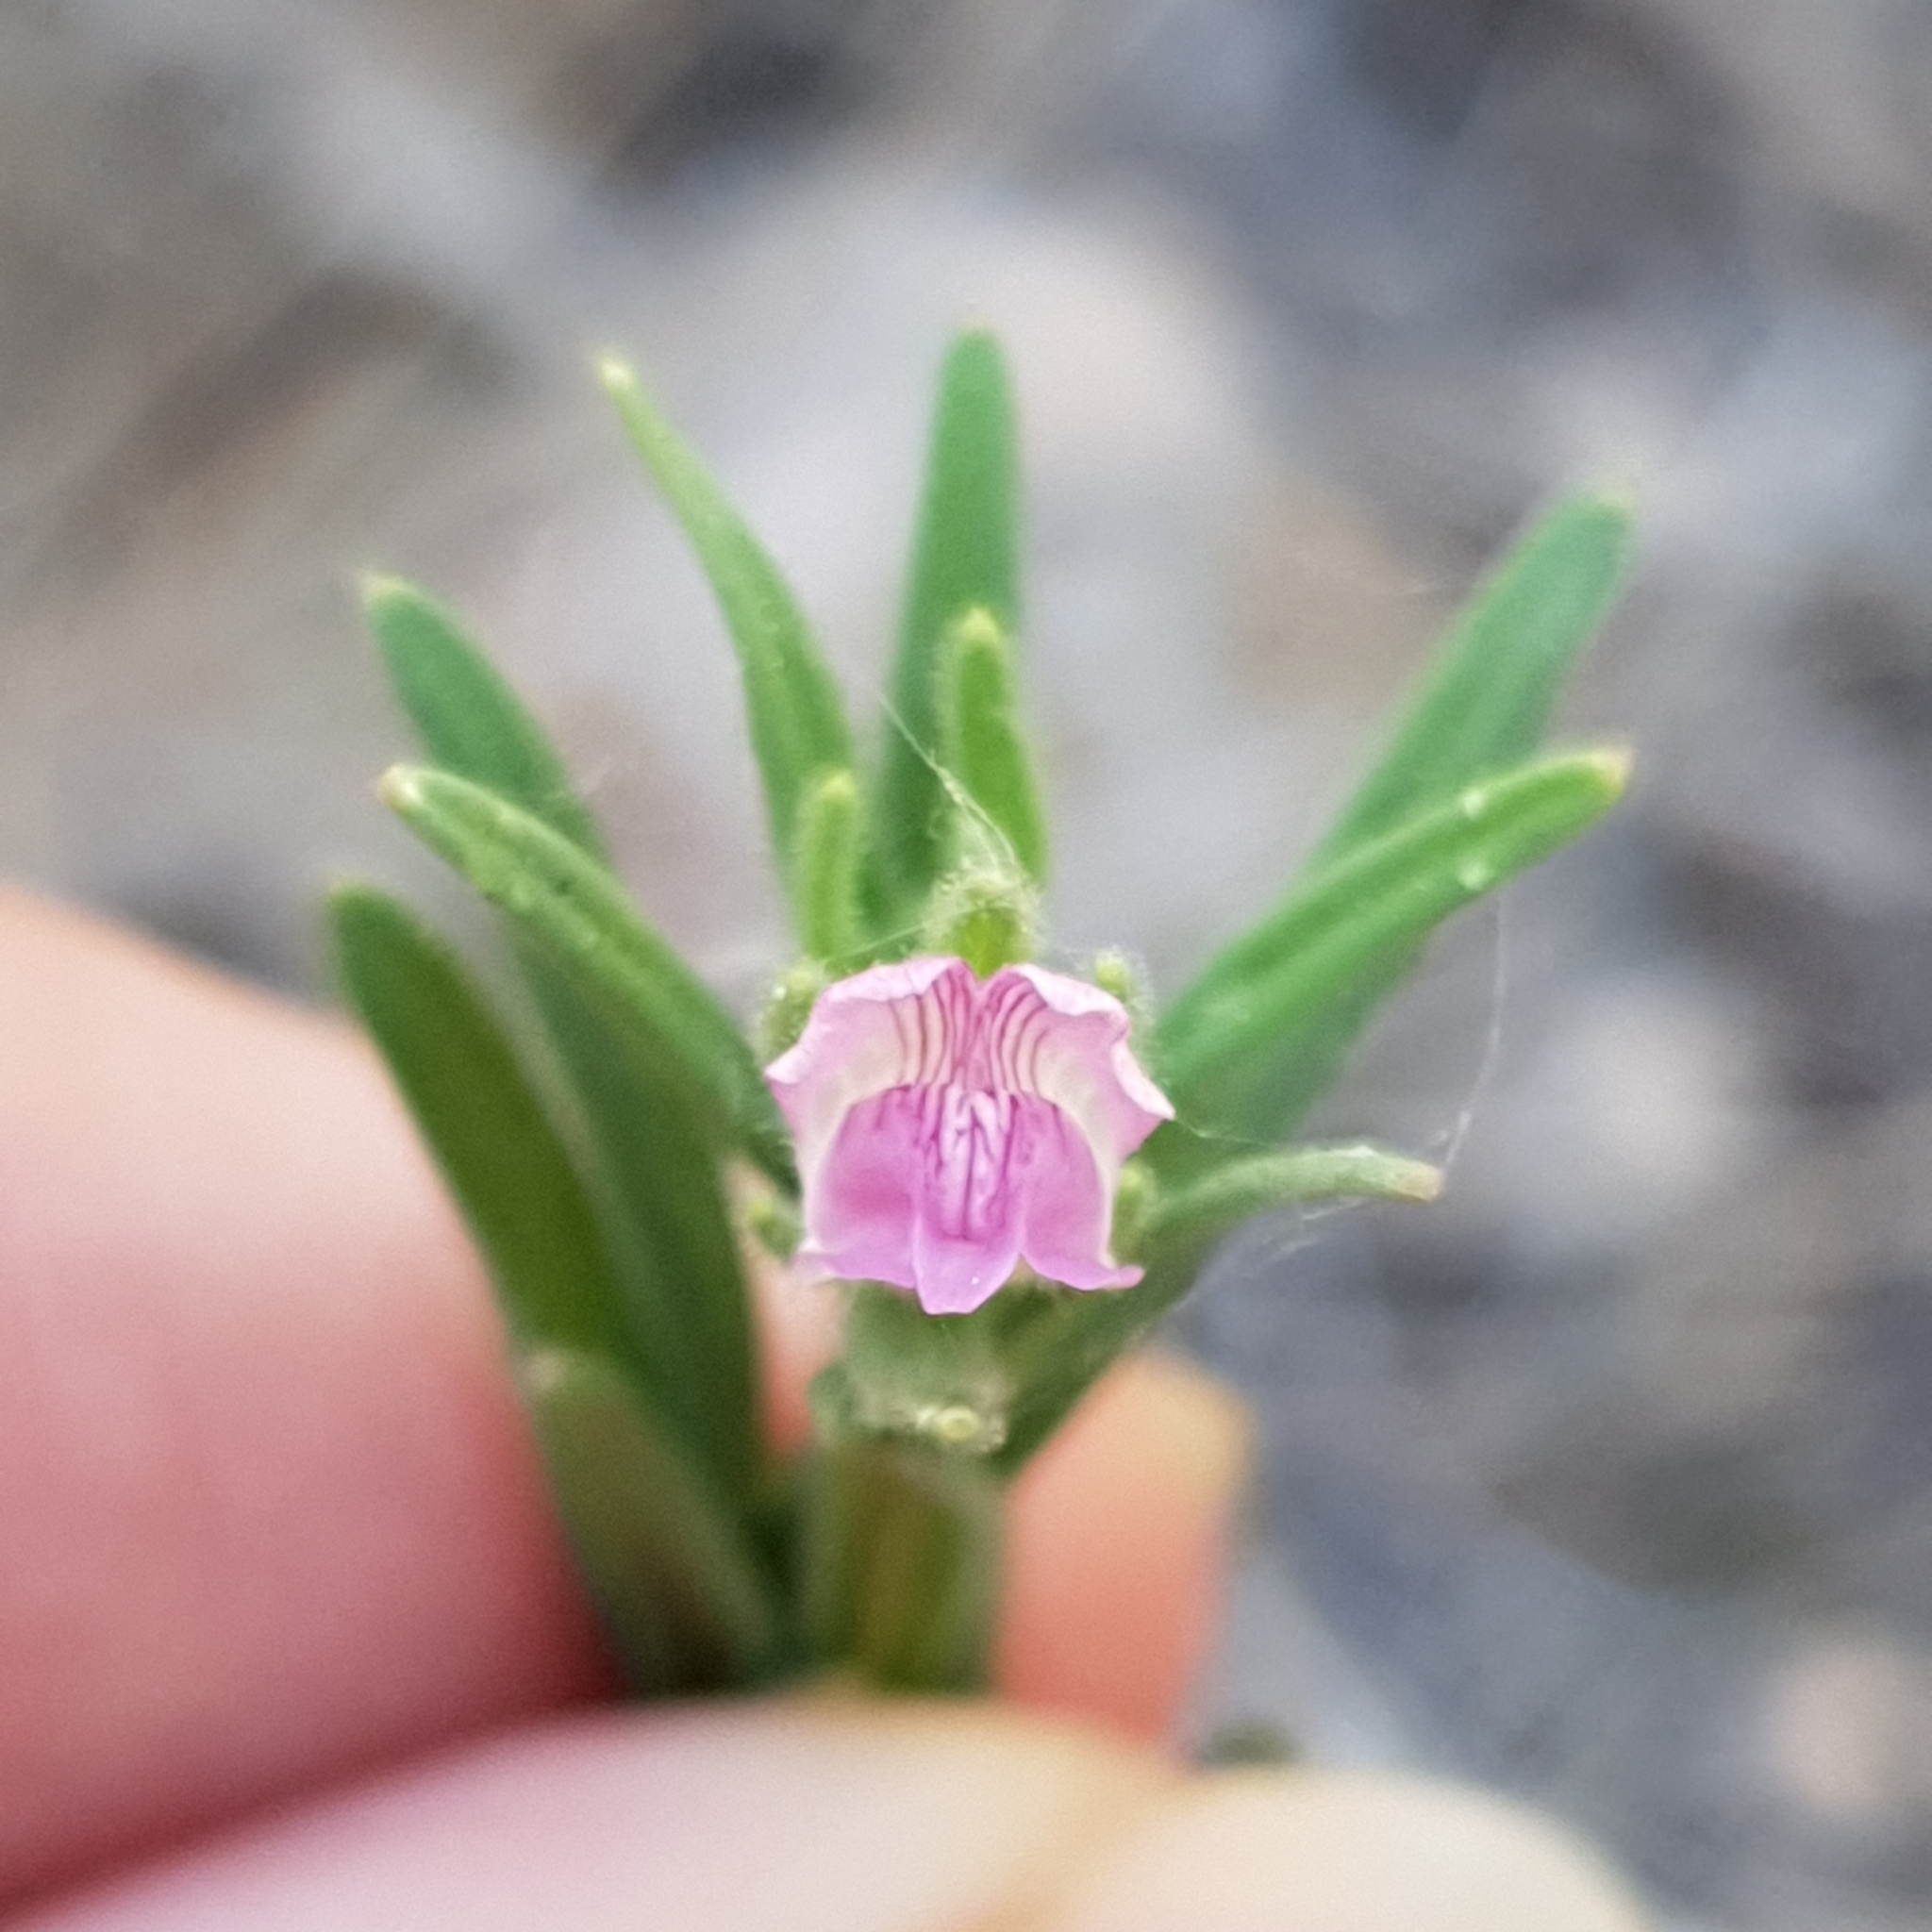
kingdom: Plantae
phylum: Tracheophyta
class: Magnoliopsida
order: Lamiales
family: Plantaginaceae
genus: Misopates
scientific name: Misopates orontium
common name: Weasel's-snout
